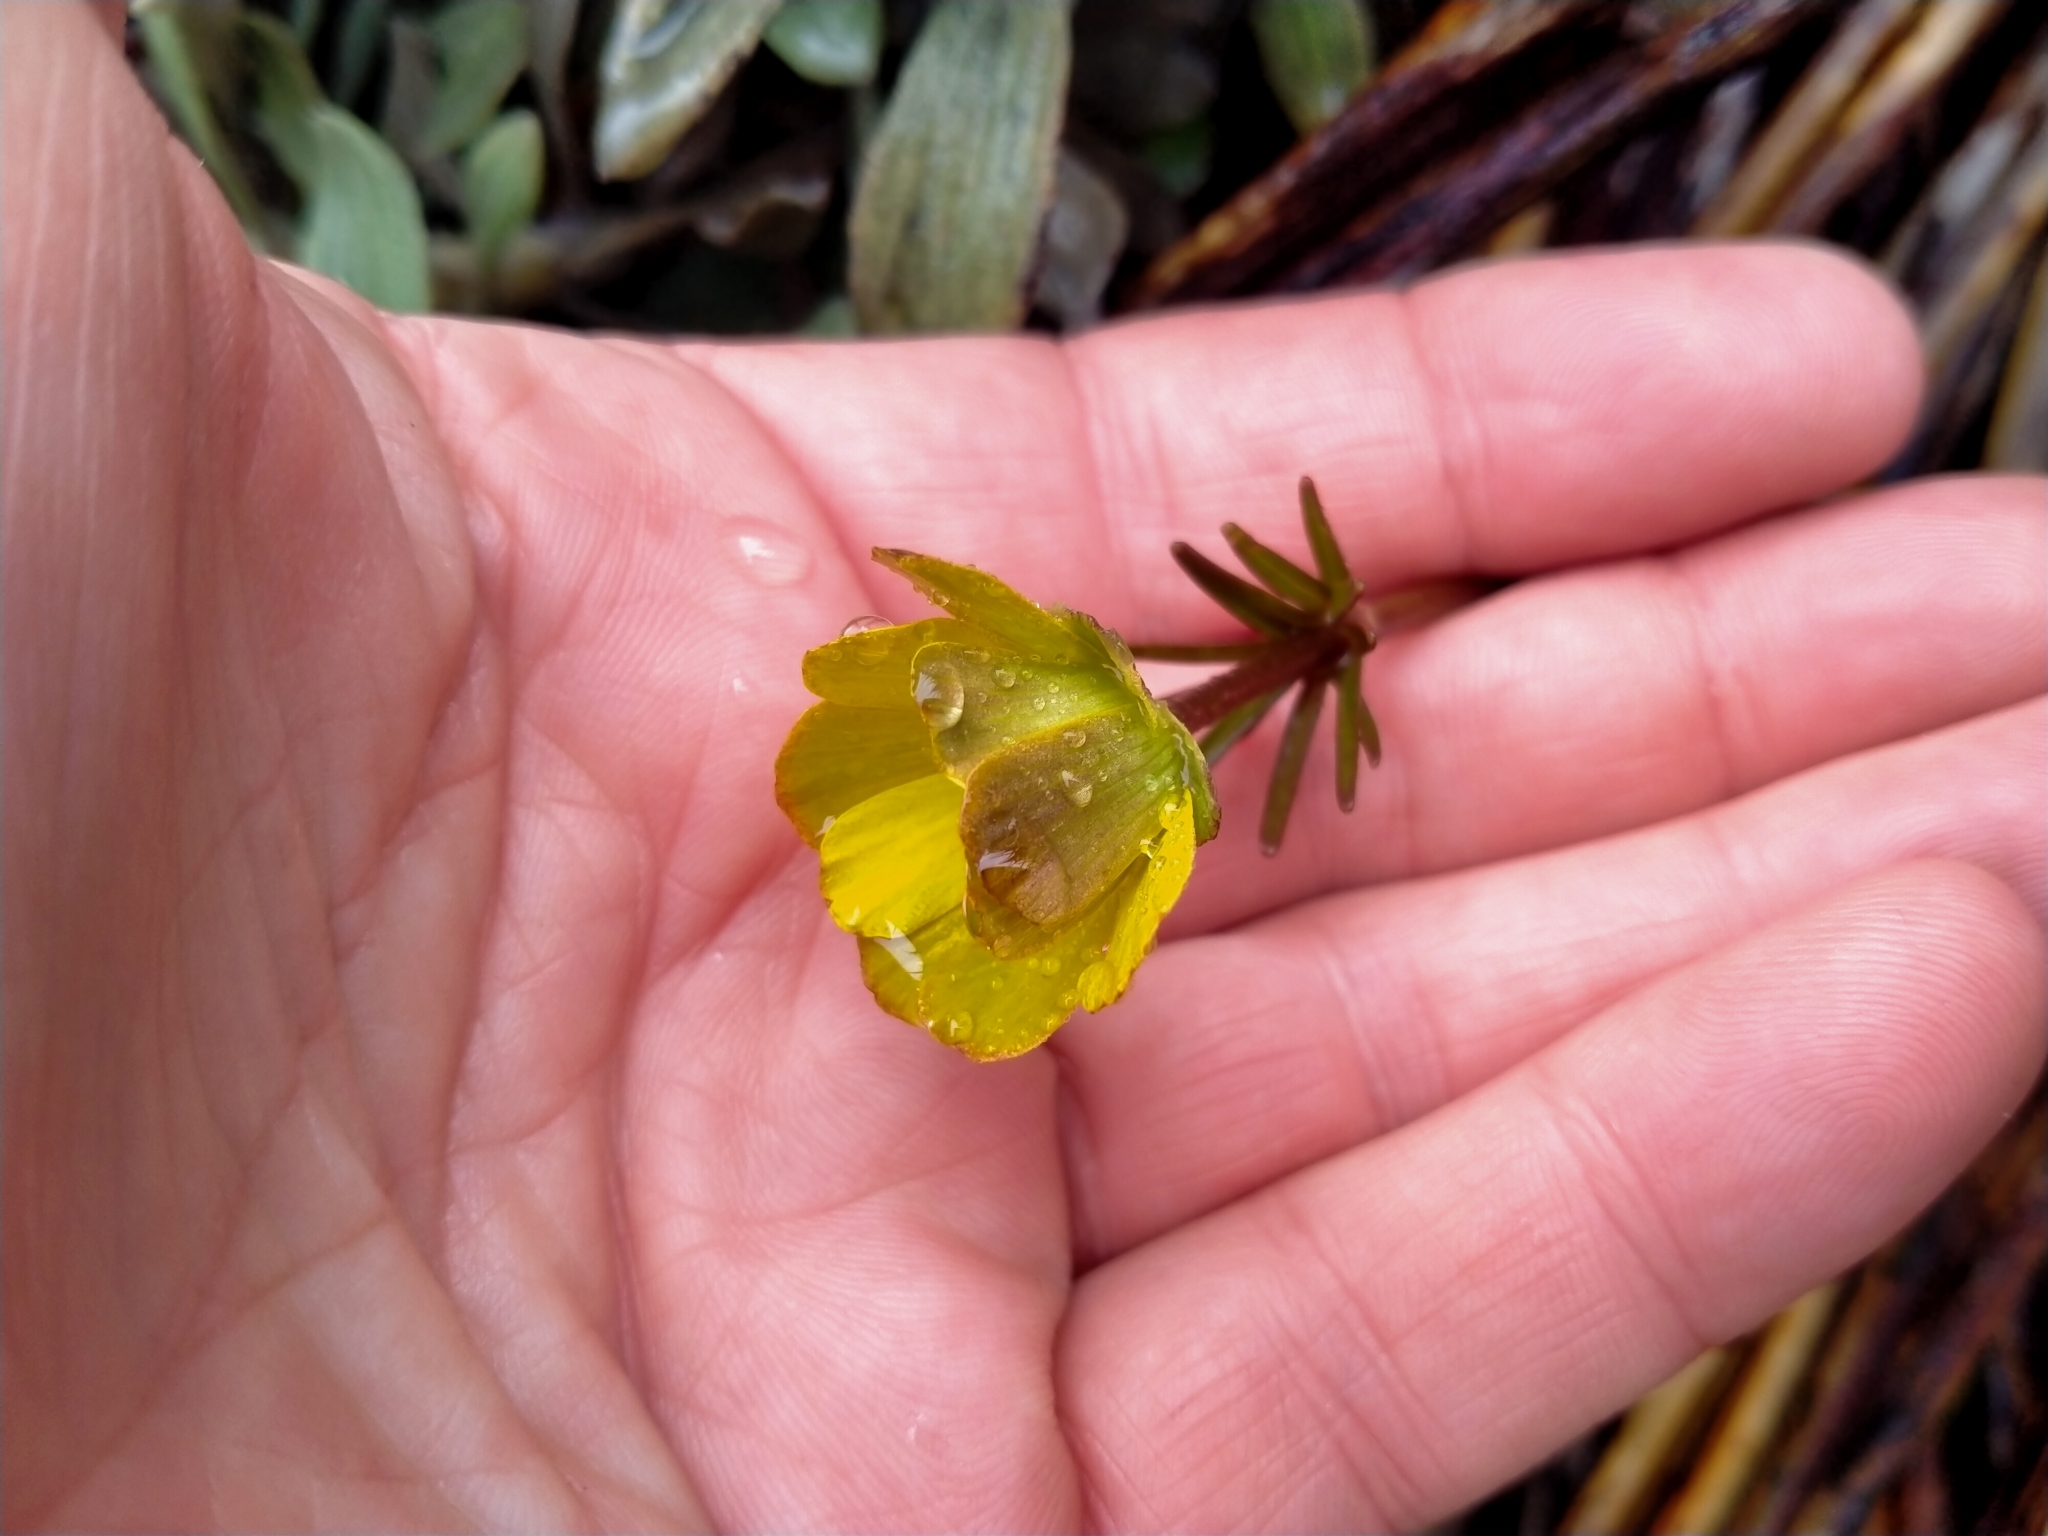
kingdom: Plantae
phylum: Tracheophyta
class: Magnoliopsida
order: Ranunculales
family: Ranunculaceae
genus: Ranunculus
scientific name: Ranunculus verticillatus
